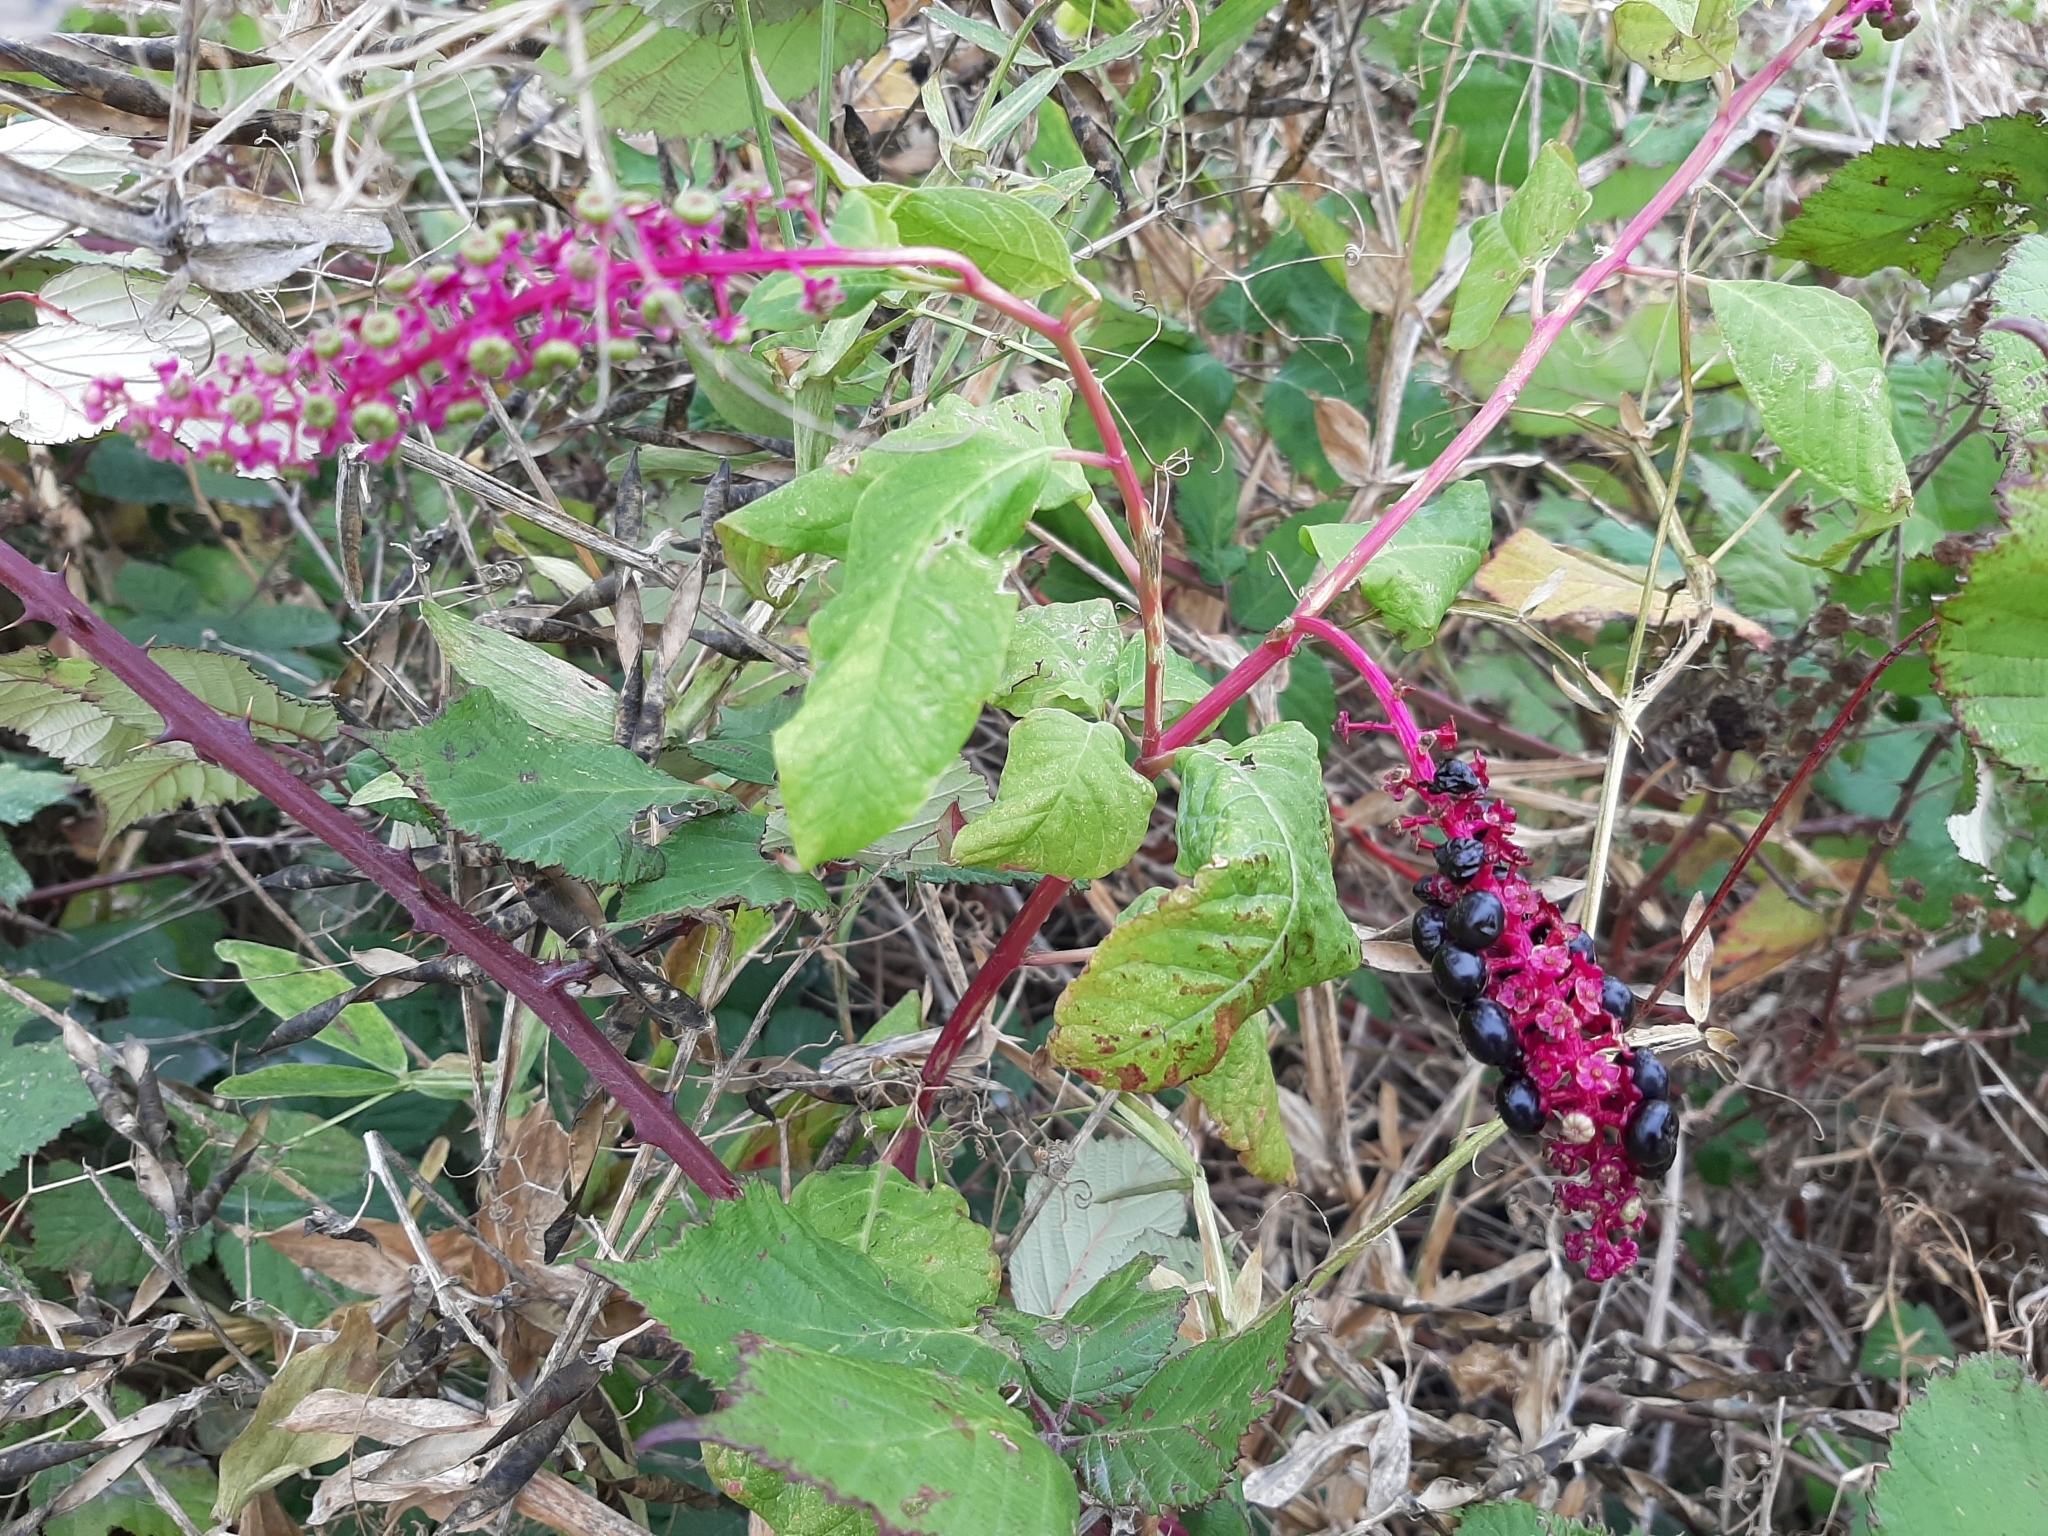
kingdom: Plantae
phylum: Tracheophyta
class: Magnoliopsida
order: Caryophyllales
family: Phytolaccaceae
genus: Phytolacca
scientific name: Phytolacca americana
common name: American pokeweed
